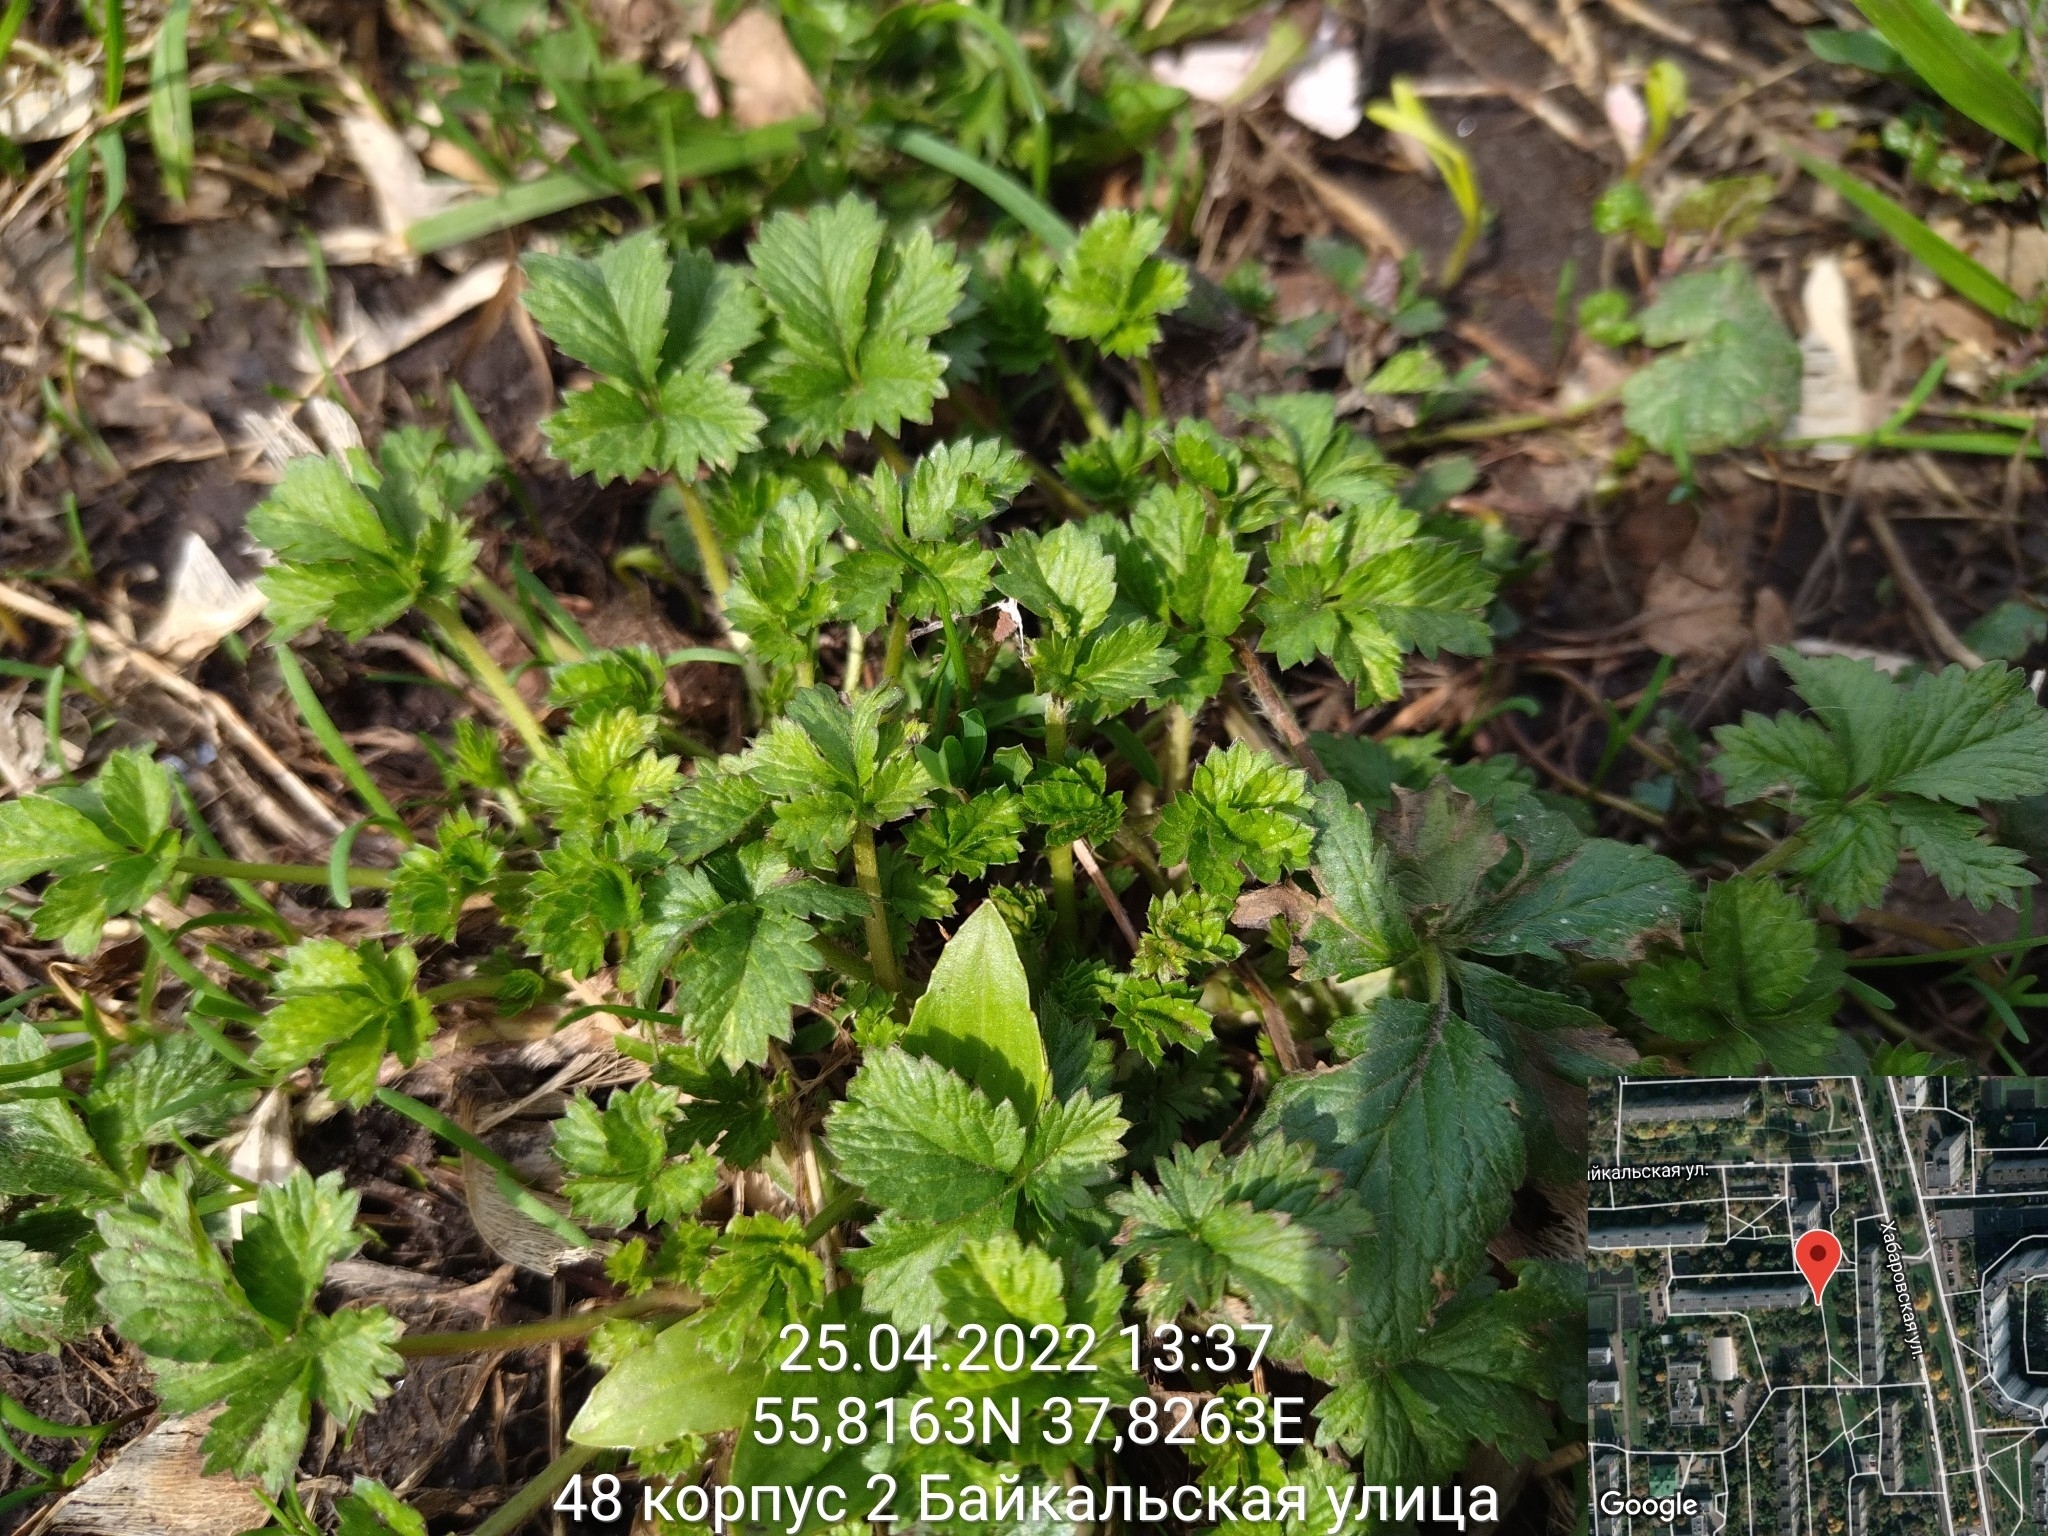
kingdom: Plantae
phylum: Tracheophyta
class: Magnoliopsida
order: Rosales
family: Rosaceae
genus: Potentilla
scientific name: Potentilla intermedia
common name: Downy cinquefoil
